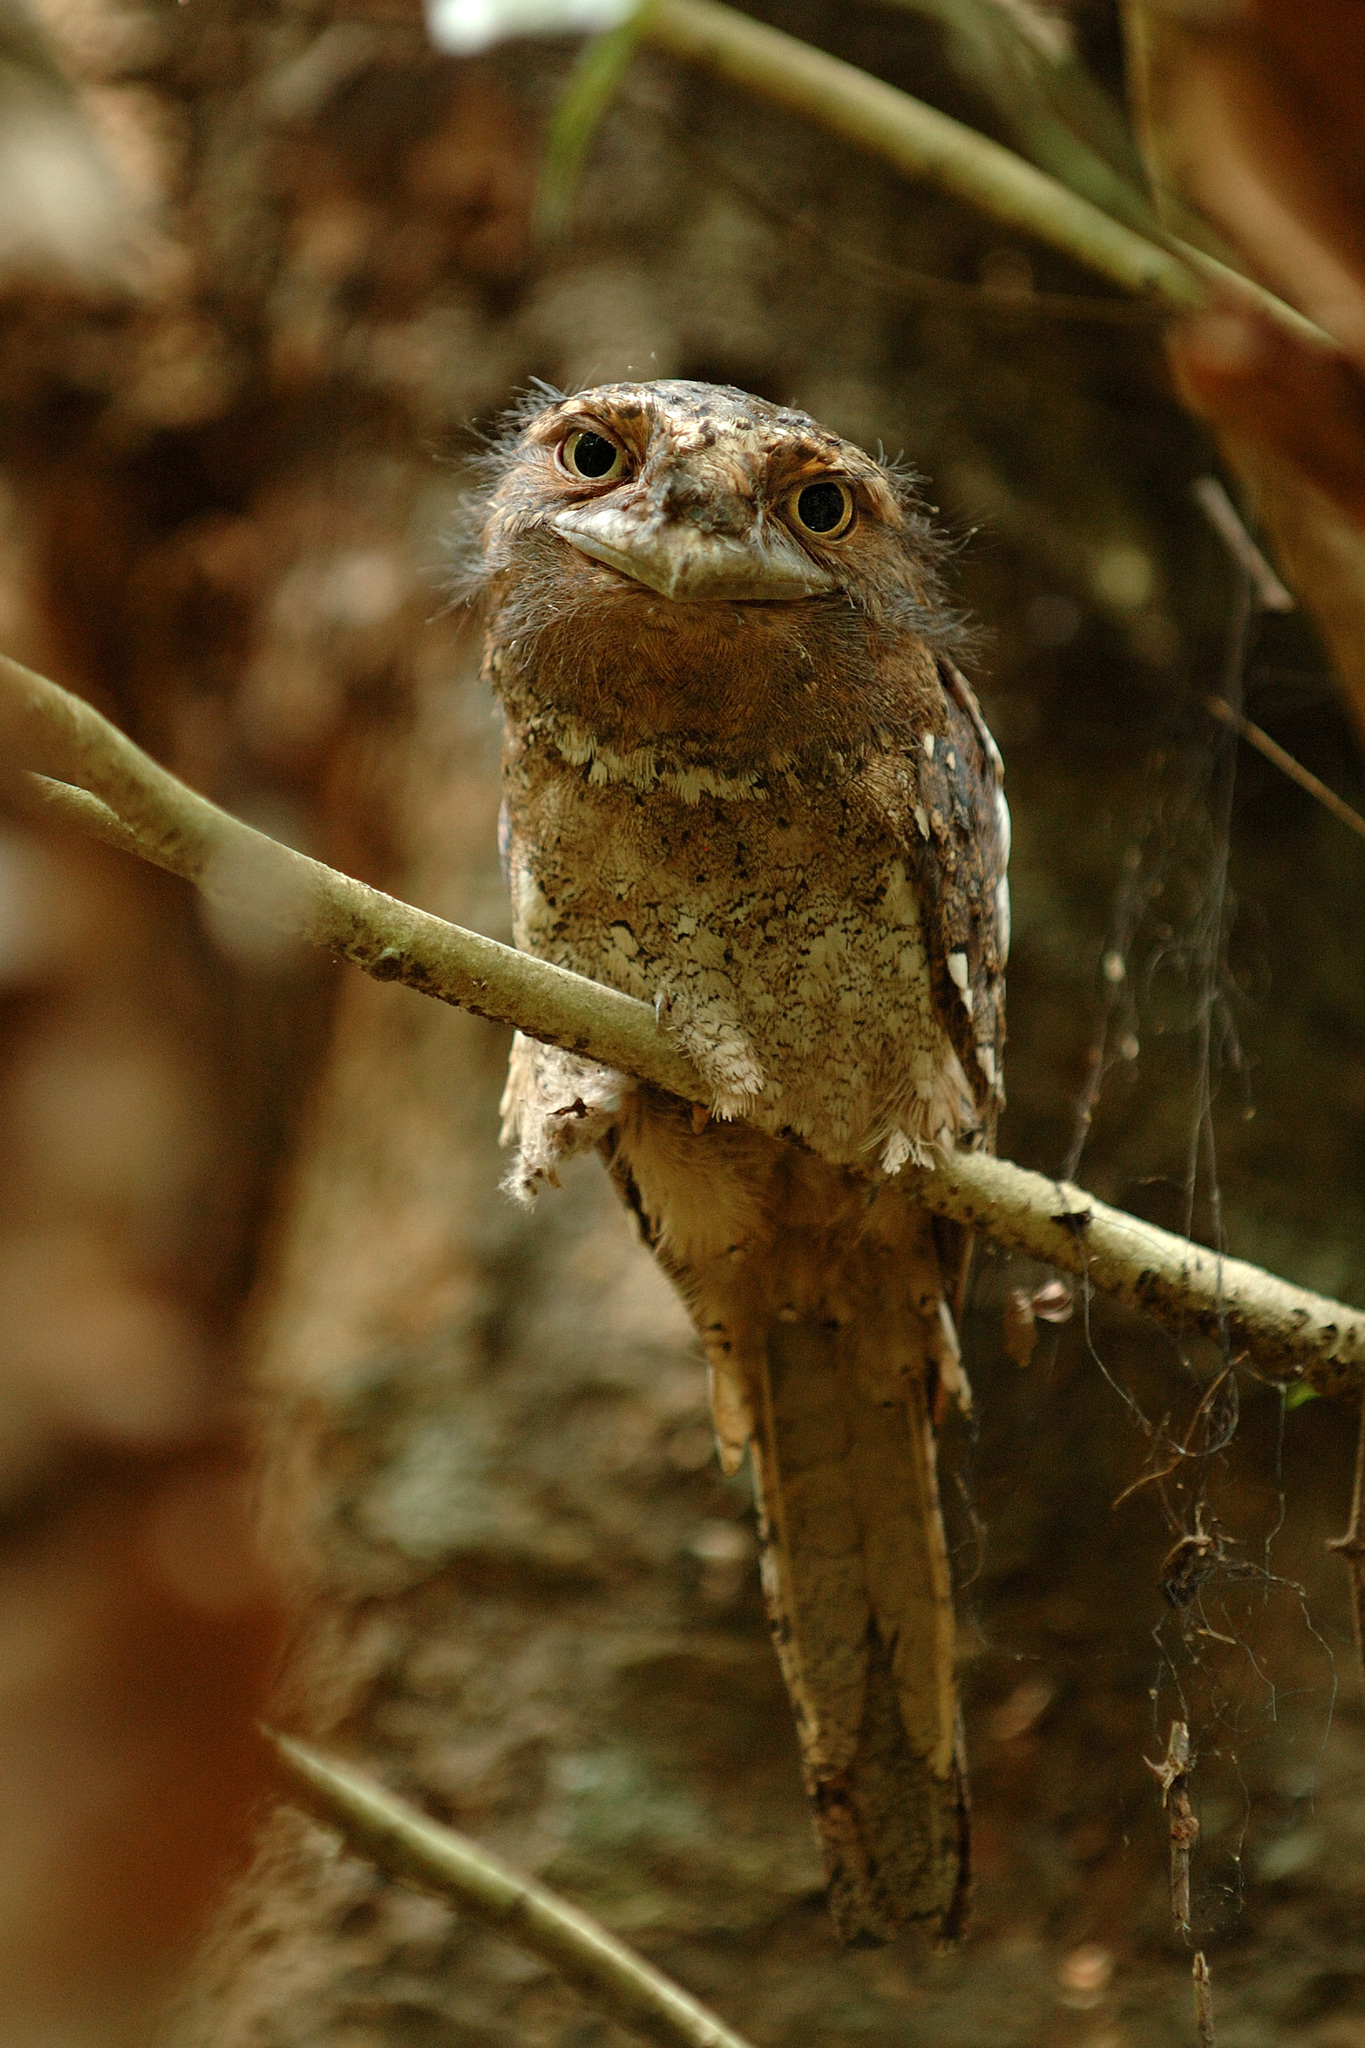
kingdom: Animalia
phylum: Chordata
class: Aves
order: Caprimulgiformes
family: Podargidae
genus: Batrachostomus
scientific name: Batrachostomus moniliger
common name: Sri lanka frogmouth
